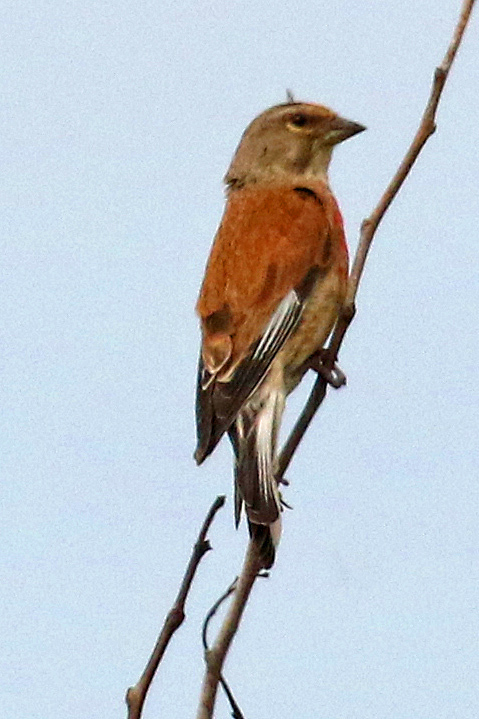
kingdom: Animalia
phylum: Chordata
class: Aves
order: Passeriformes
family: Fringillidae
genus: Linaria
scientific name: Linaria cannabina
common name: Common linnet
